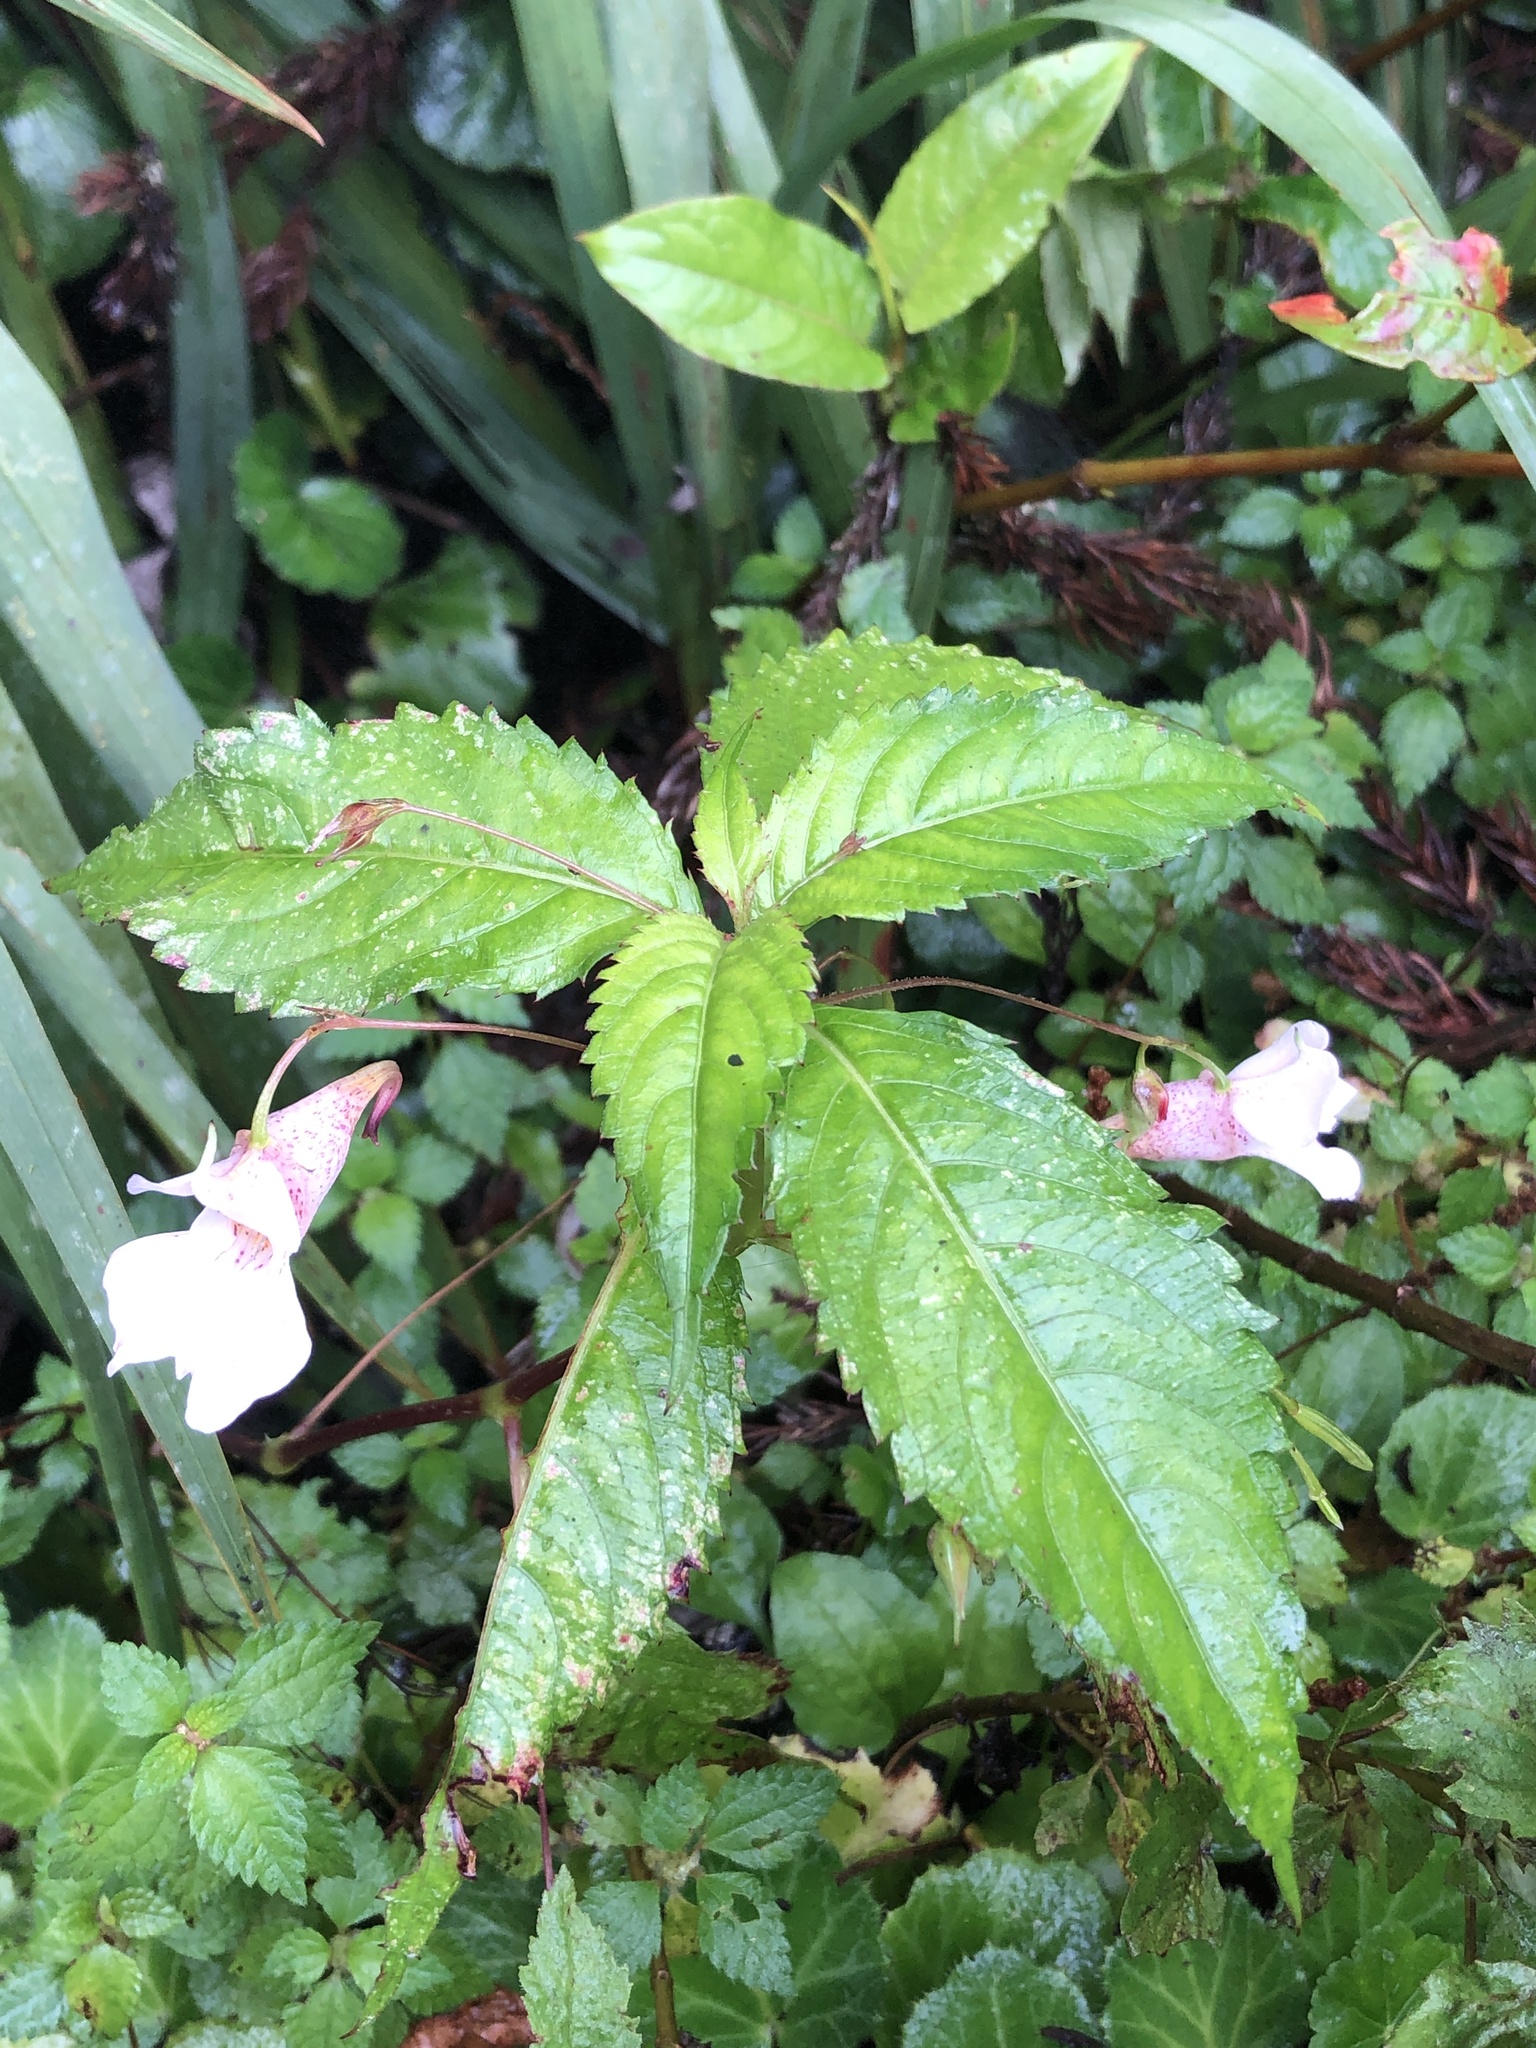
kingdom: Plantae
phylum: Tracheophyta
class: Magnoliopsida
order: Ericales
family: Balsaminaceae
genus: Impatiens
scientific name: Impatiens uniflora
